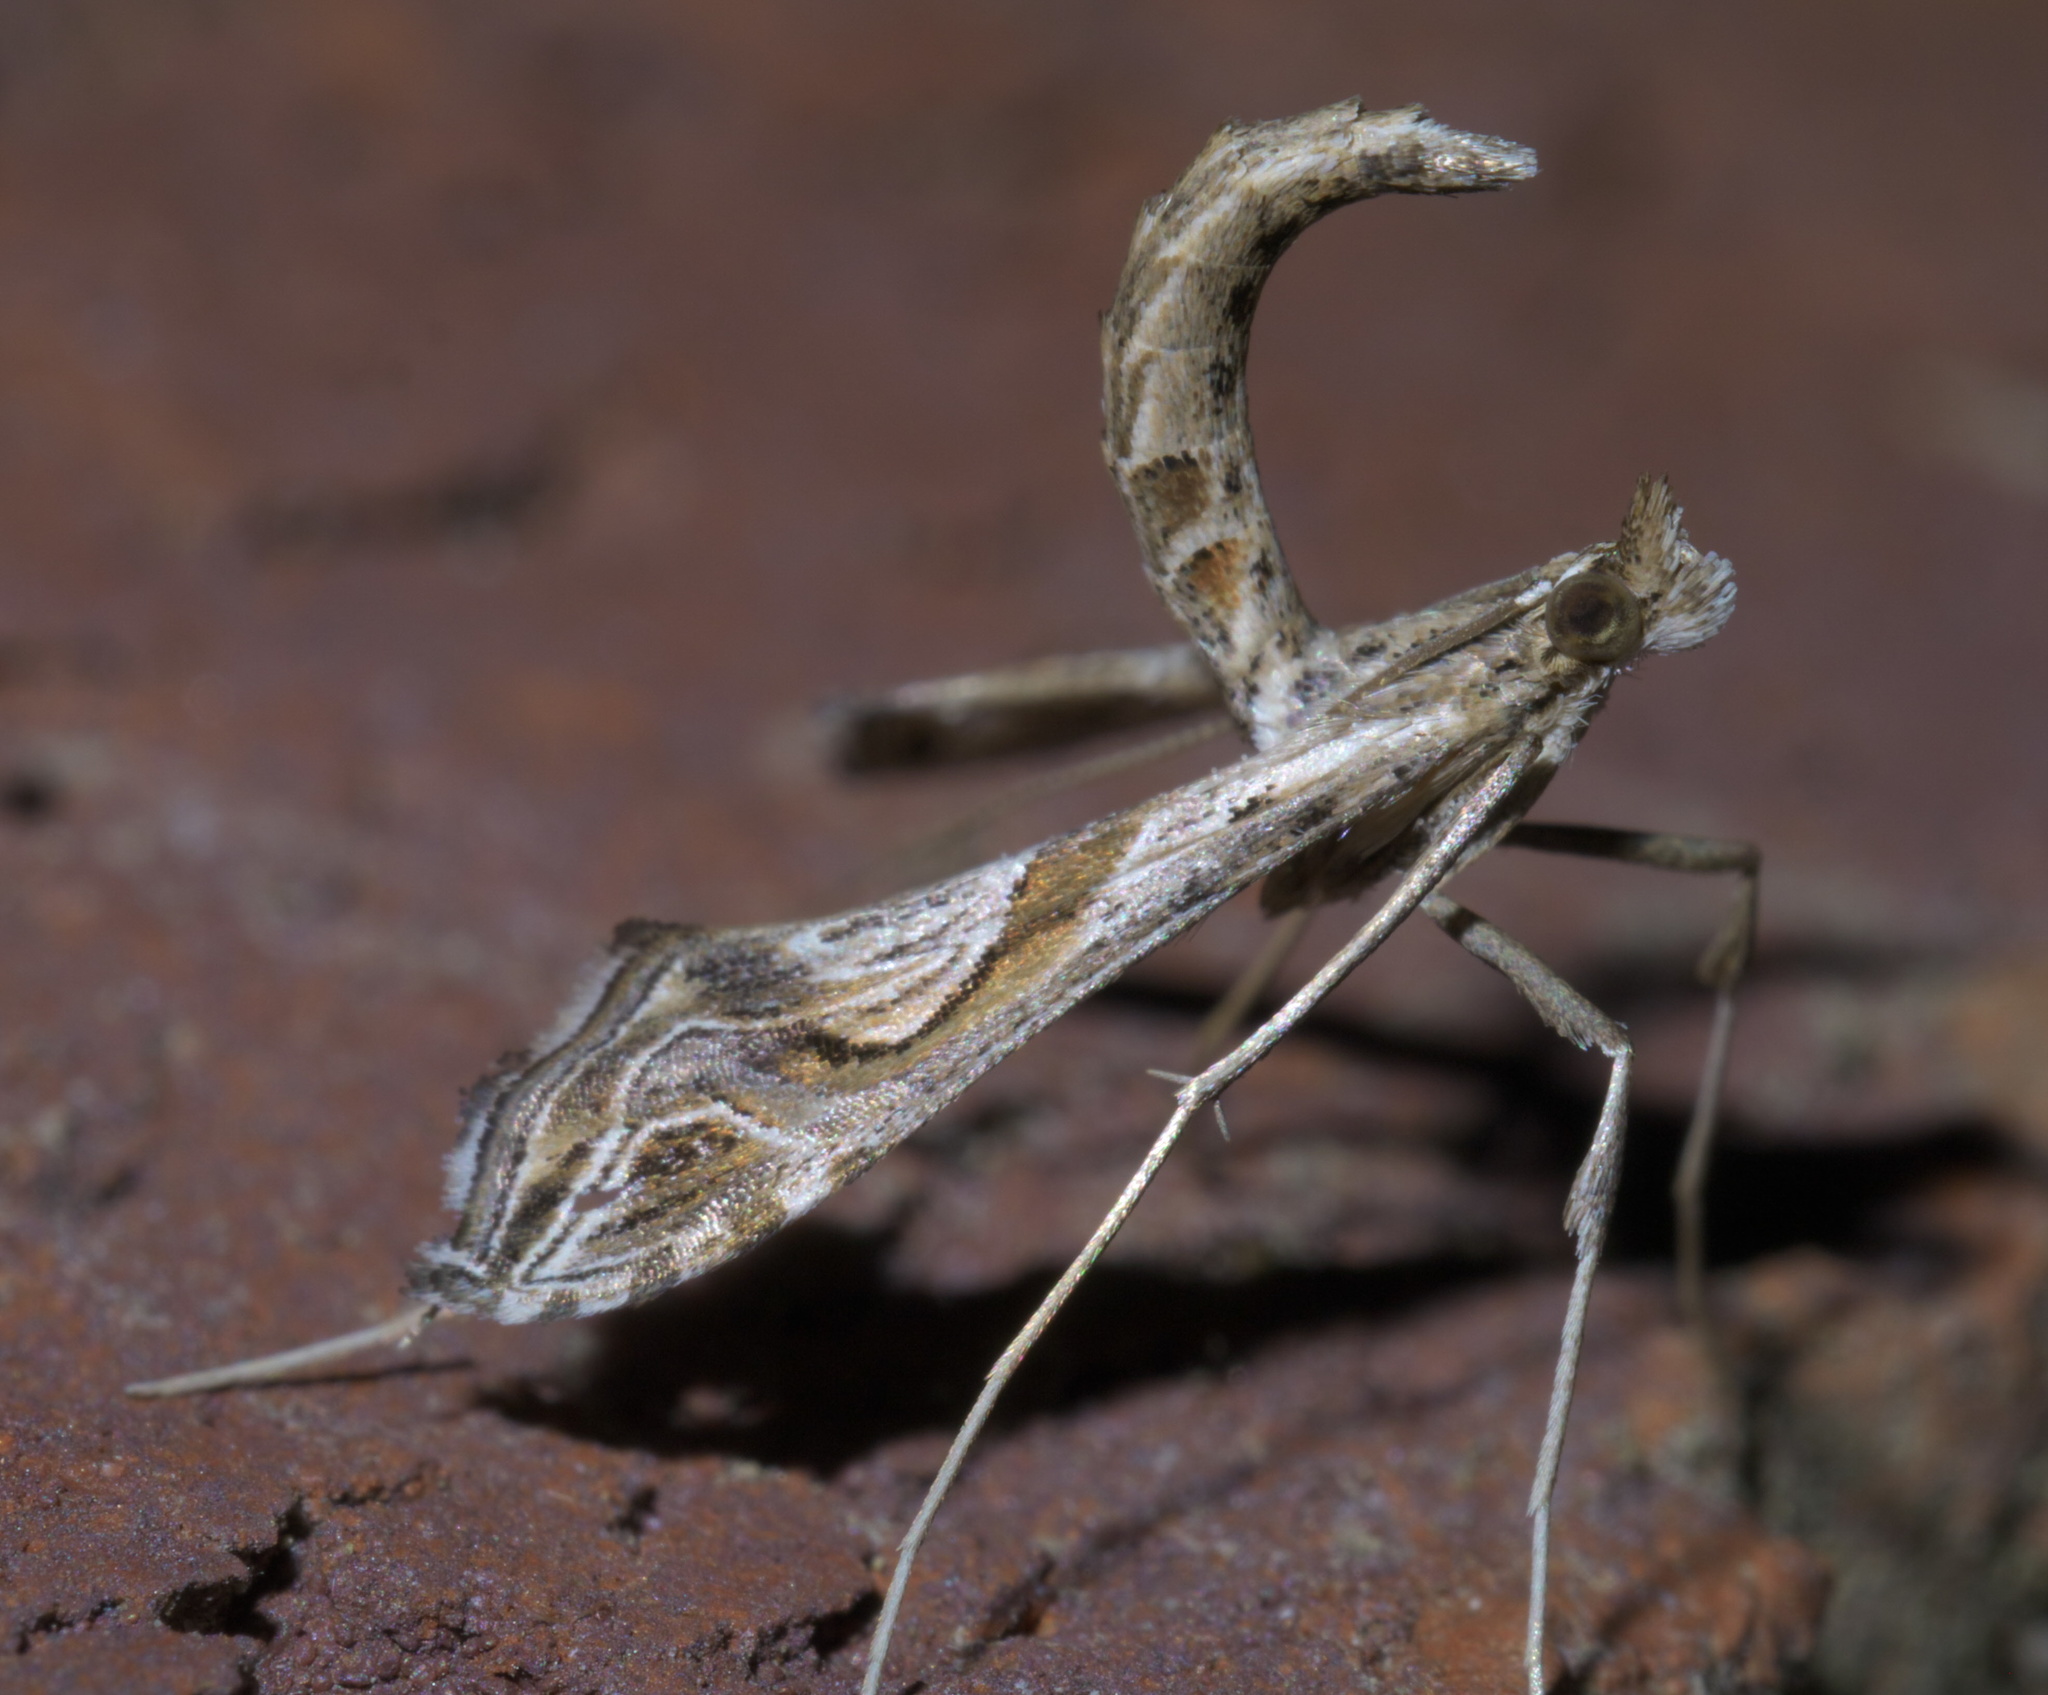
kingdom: Animalia
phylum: Arthropoda
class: Insecta
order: Lepidoptera
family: Crambidae
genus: Lineodes
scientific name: Lineodes integra
